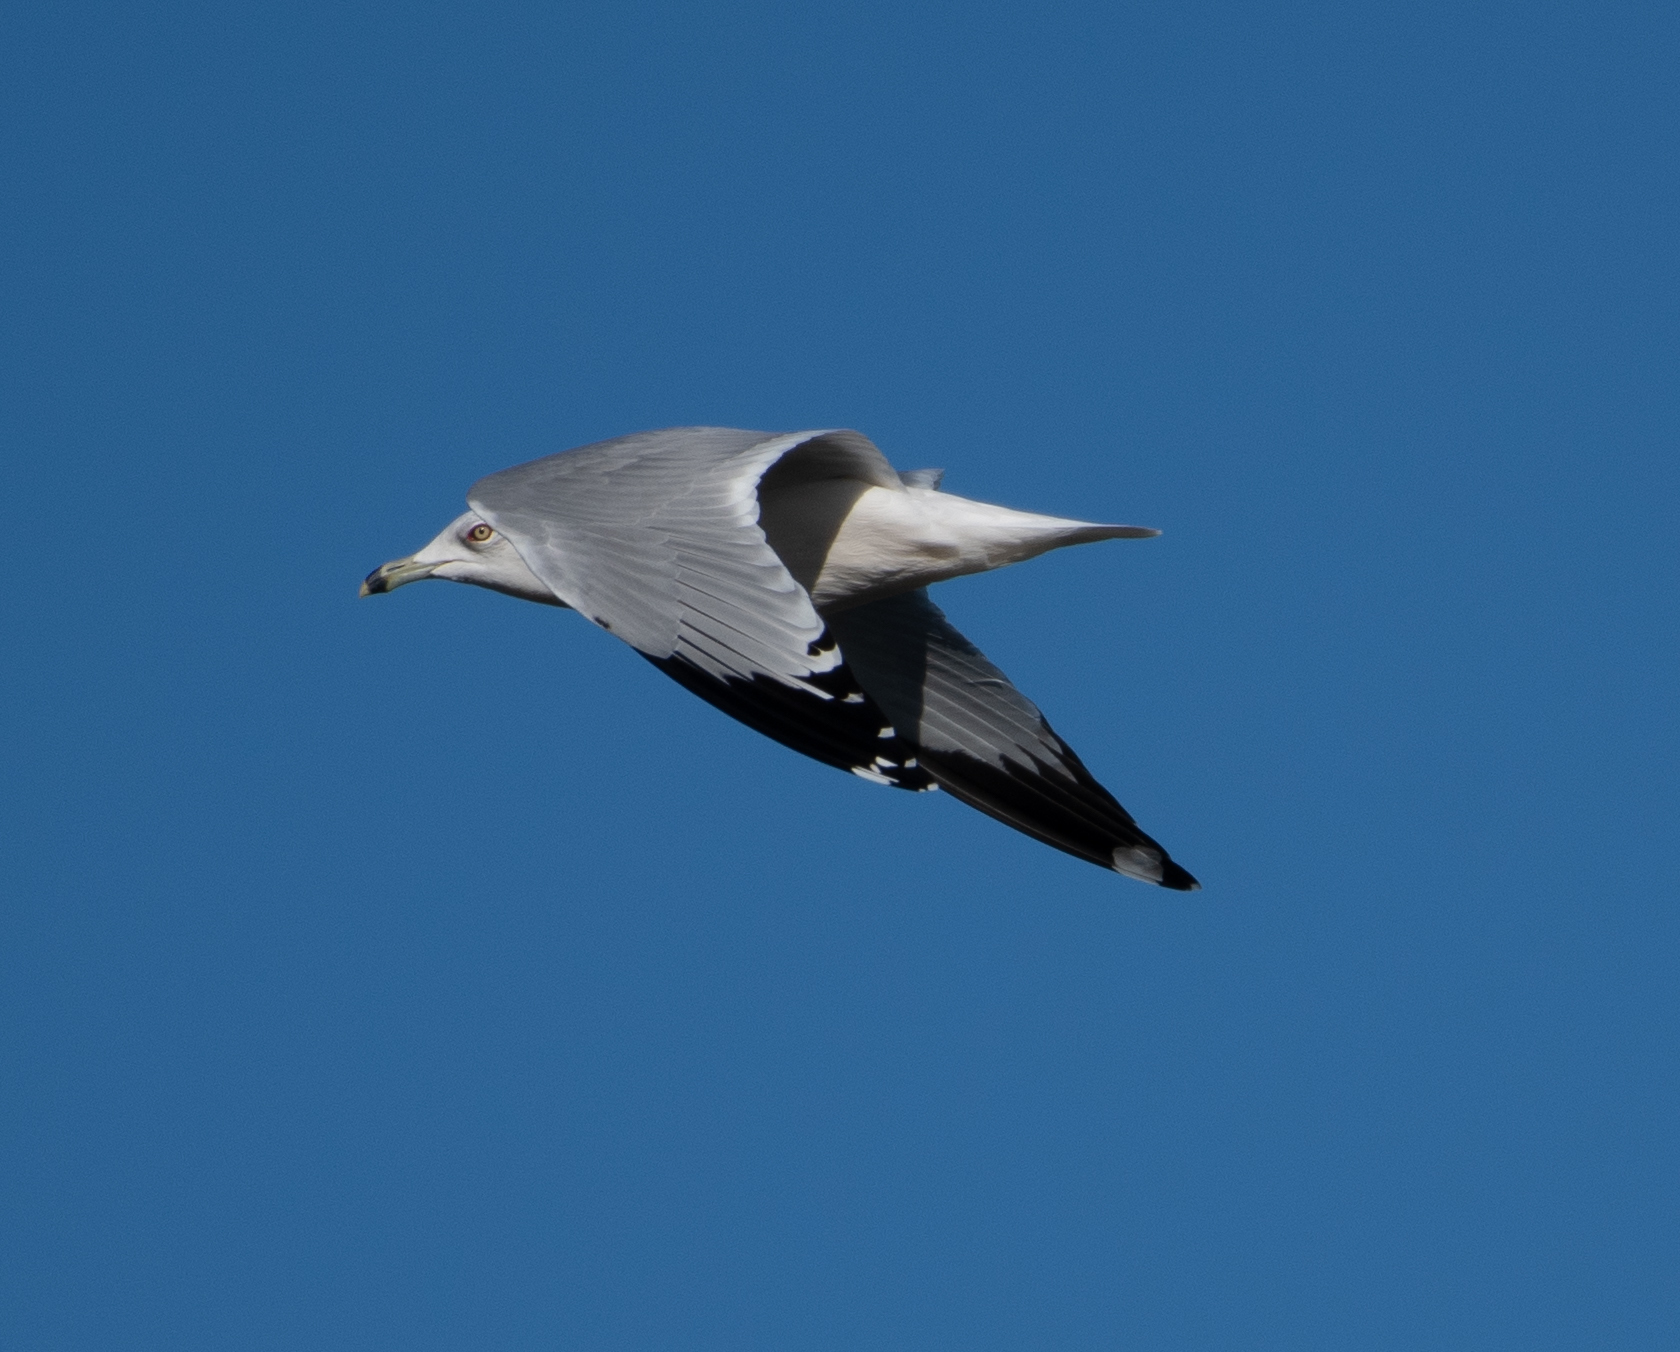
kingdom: Animalia
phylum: Chordata
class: Aves
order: Charadriiformes
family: Laridae
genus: Larus
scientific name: Larus delawarensis
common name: Ring-billed gull
